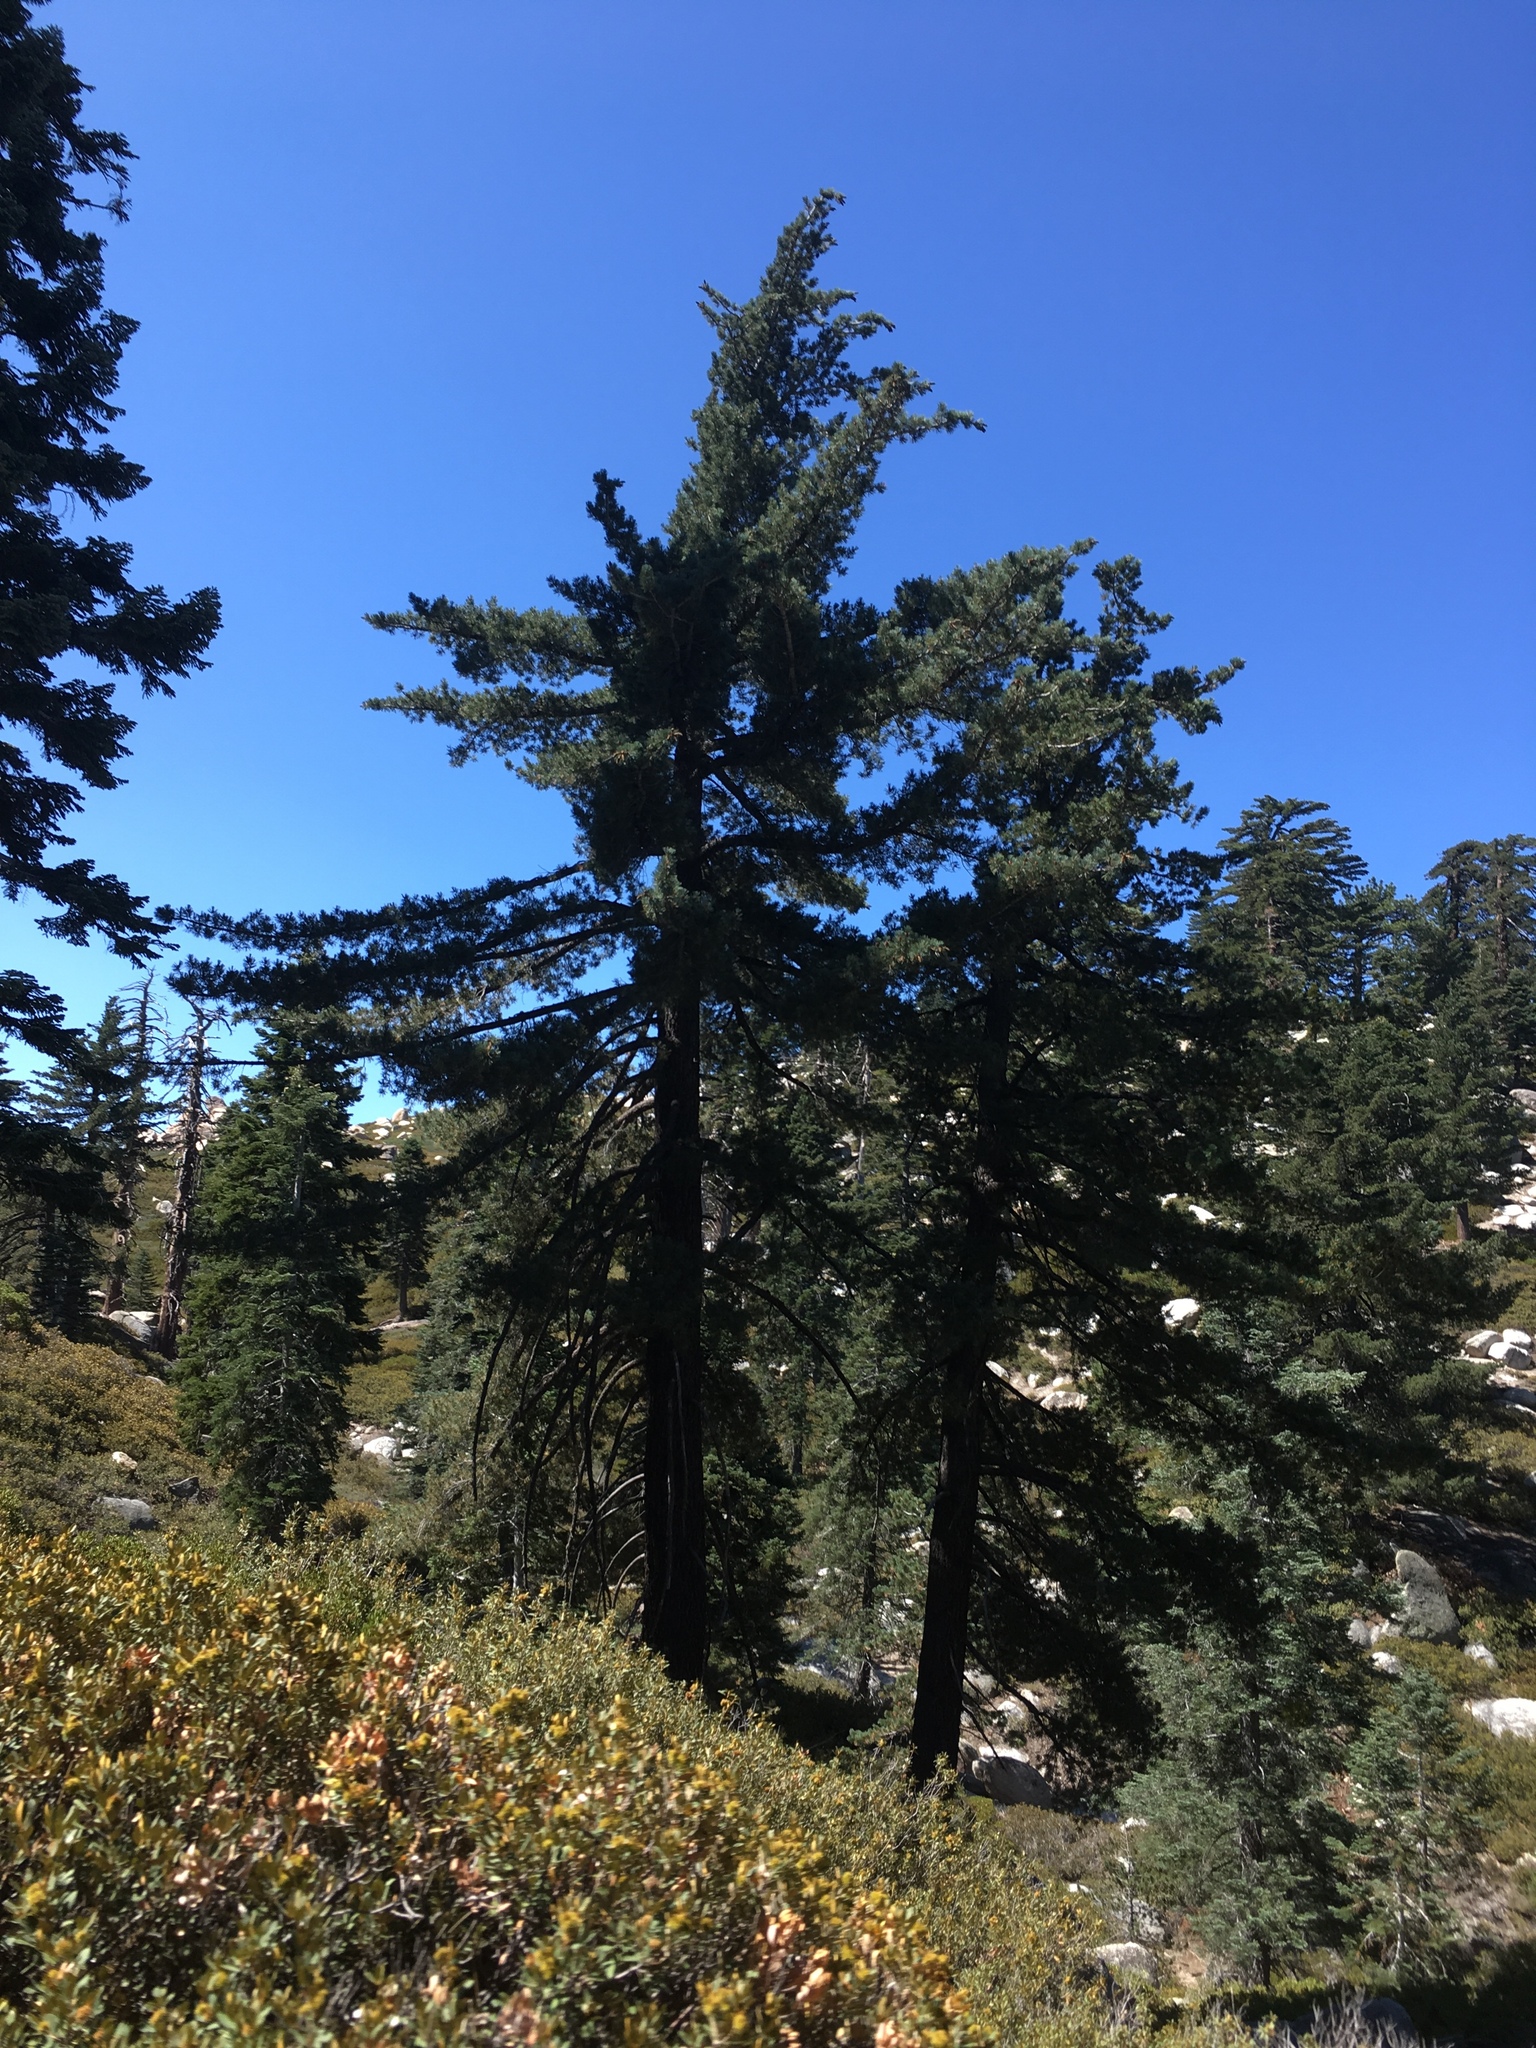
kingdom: Plantae
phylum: Tracheophyta
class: Pinopsida
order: Pinales
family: Pinaceae
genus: Pinus
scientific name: Pinus lambertiana
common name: Sugar pine
